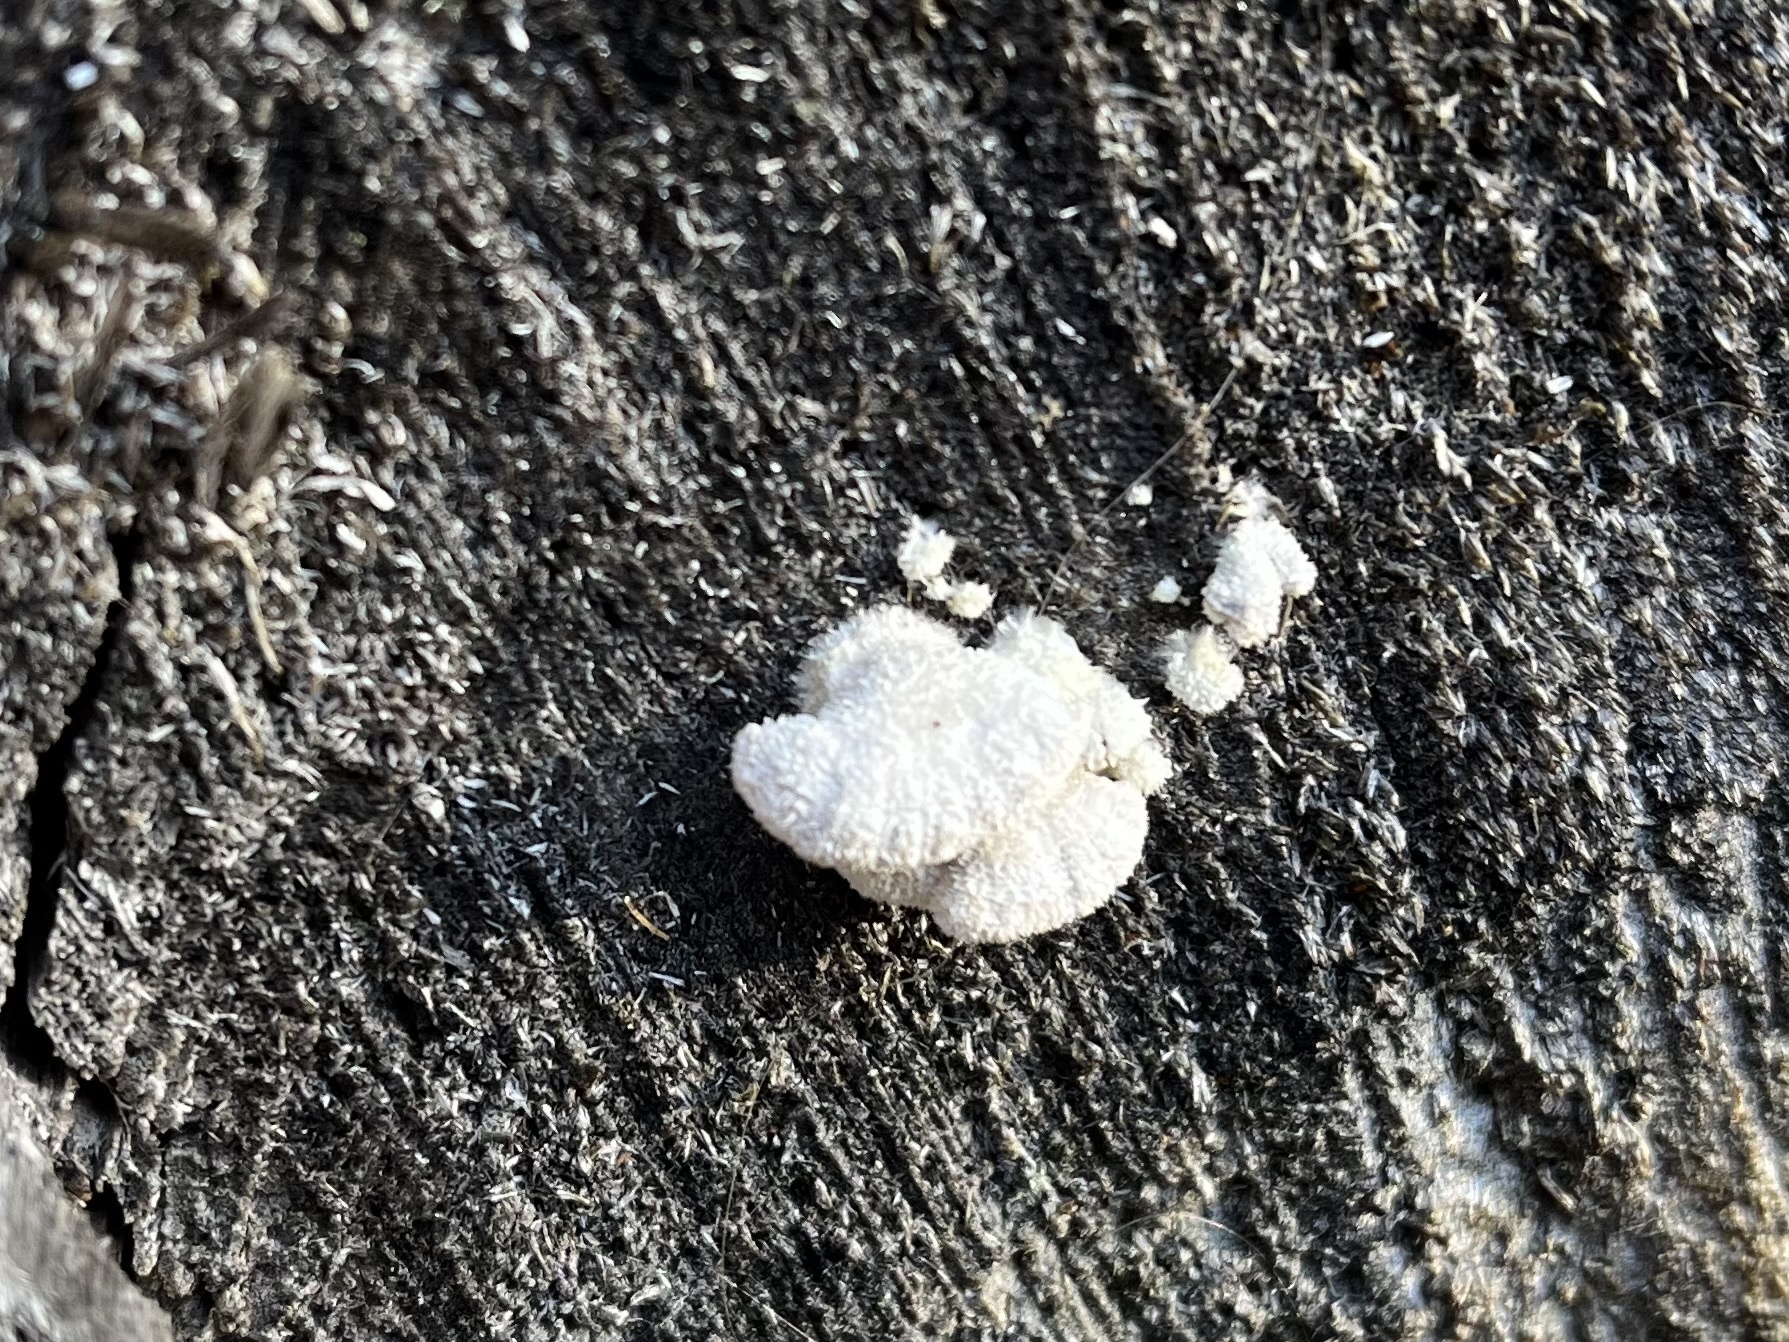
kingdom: Fungi
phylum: Basidiomycota
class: Agaricomycetes
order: Agaricales
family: Schizophyllaceae
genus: Schizophyllum
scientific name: Schizophyllum commune
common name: Common porecrust
